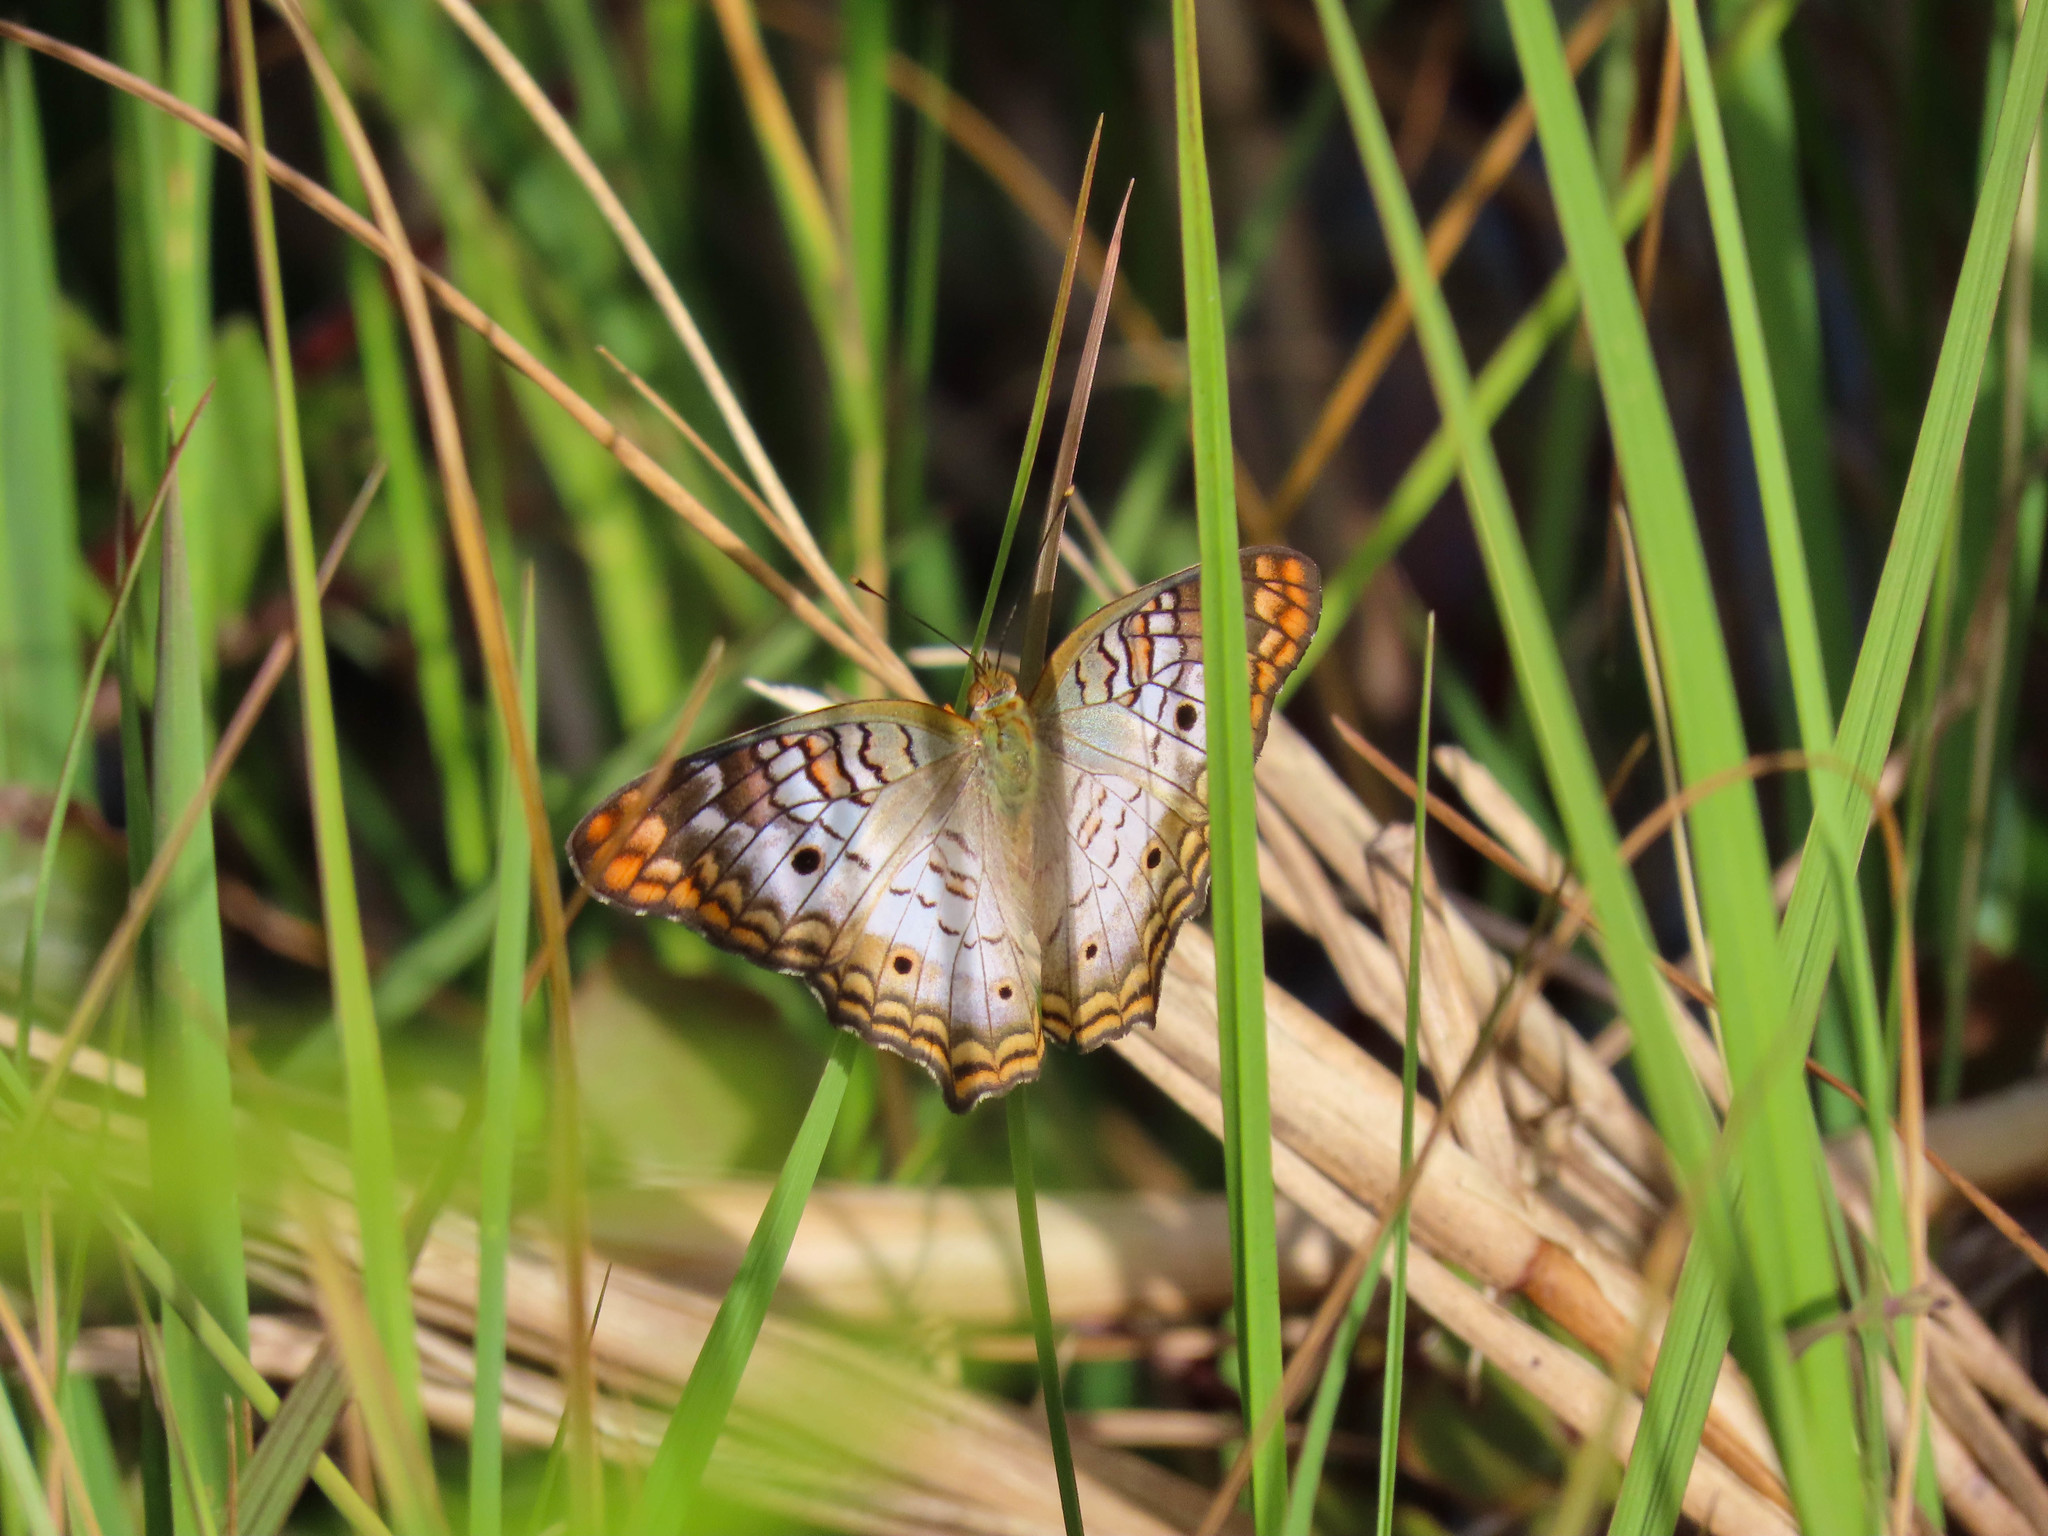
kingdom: Animalia
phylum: Arthropoda
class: Insecta
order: Lepidoptera
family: Nymphalidae
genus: Anartia
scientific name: Anartia jatrophae
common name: White peacock
